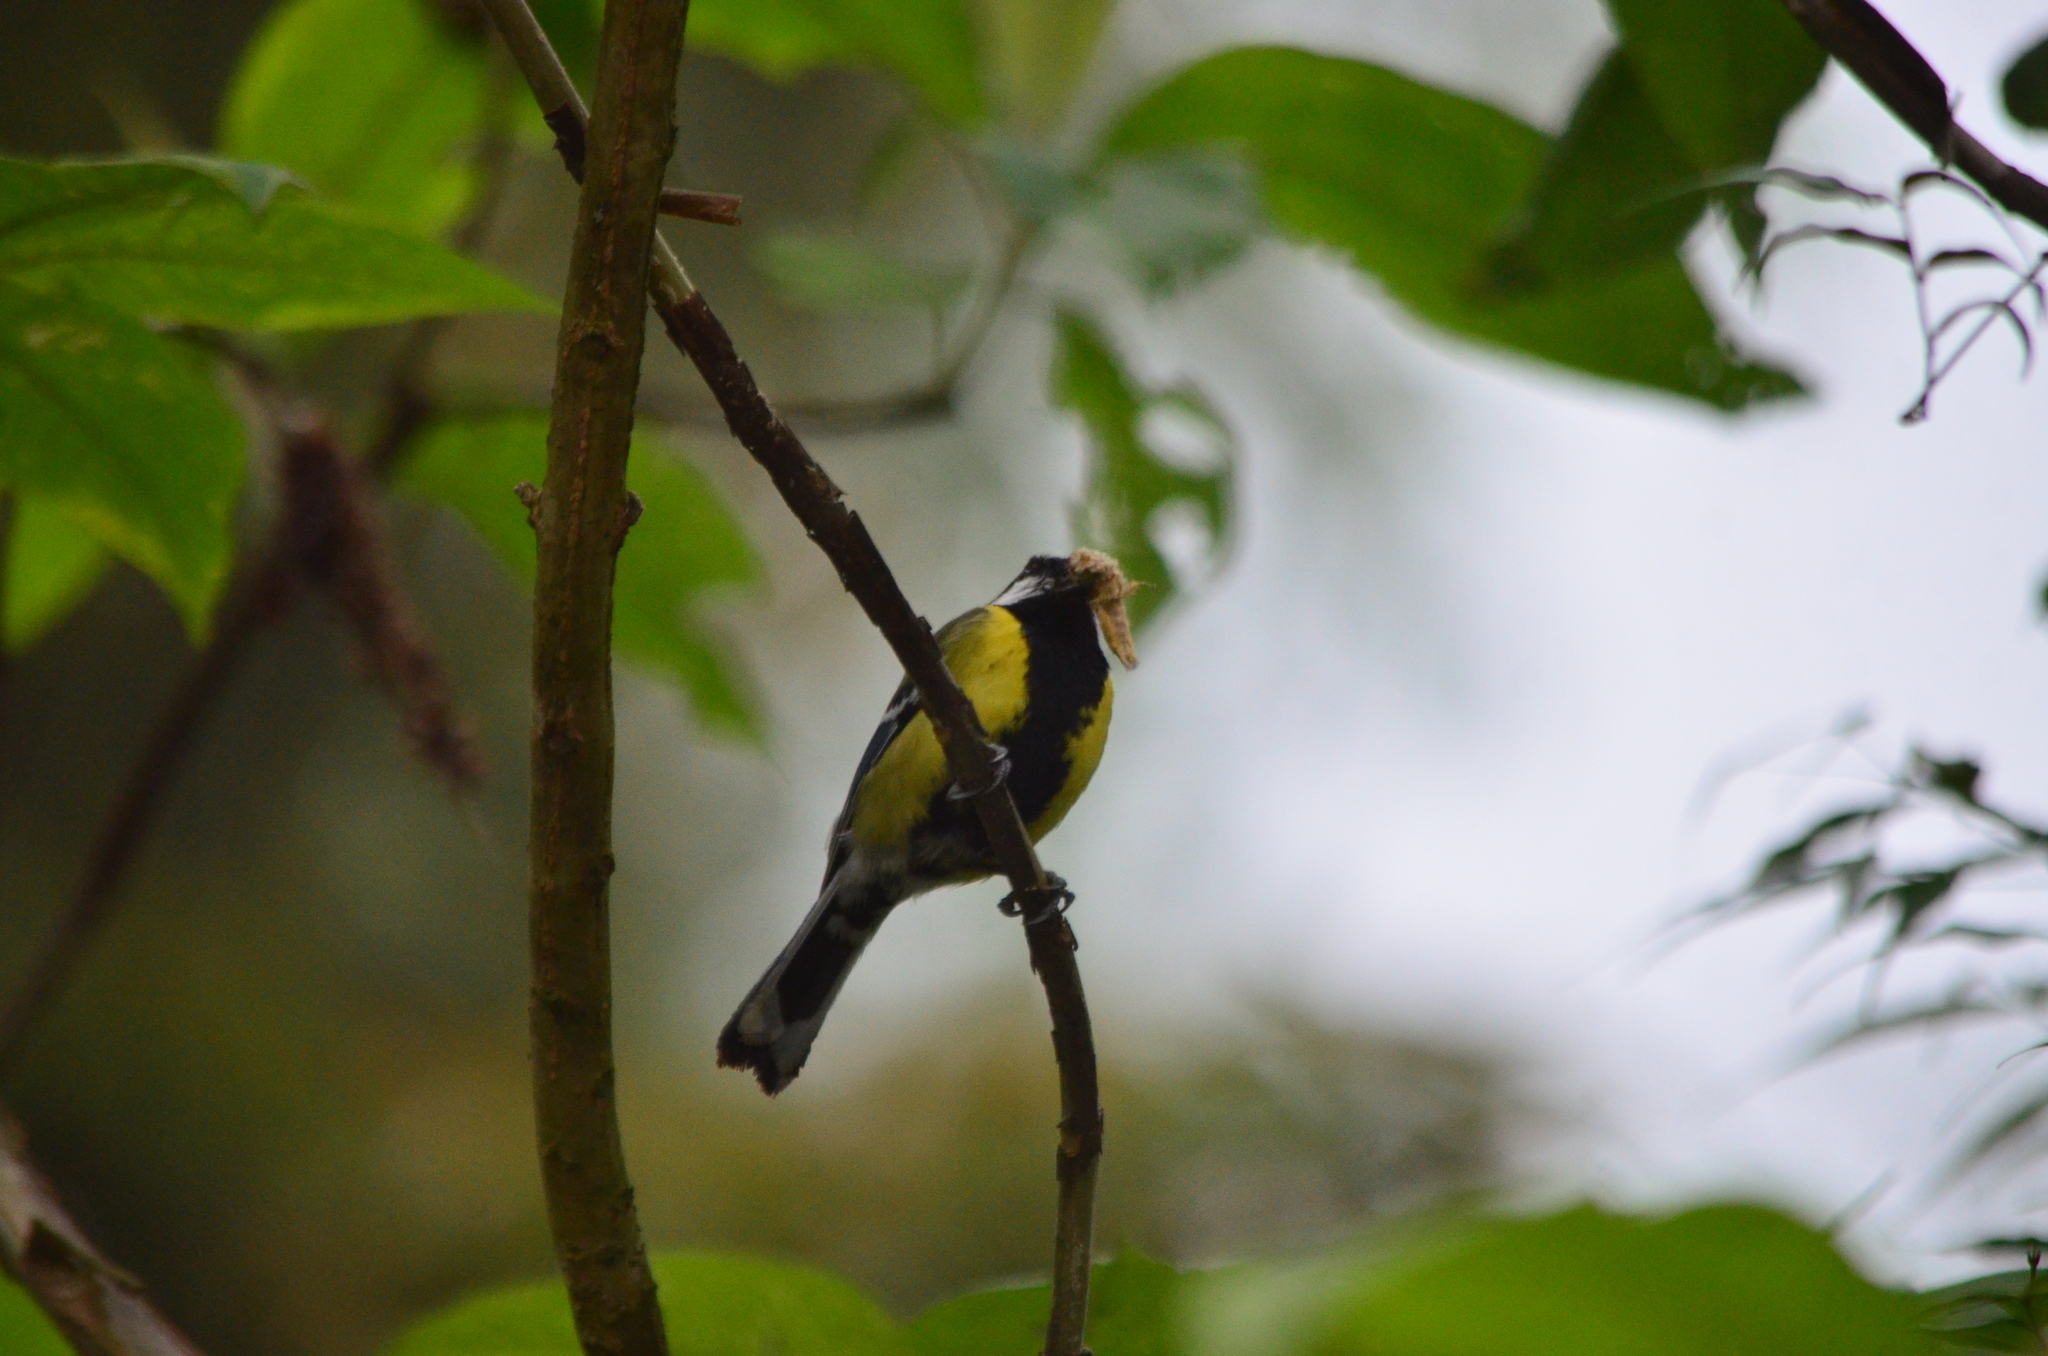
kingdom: Animalia
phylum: Chordata
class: Aves
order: Passeriformes
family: Paridae
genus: Parus
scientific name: Parus monticolus
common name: Green-backed tit
